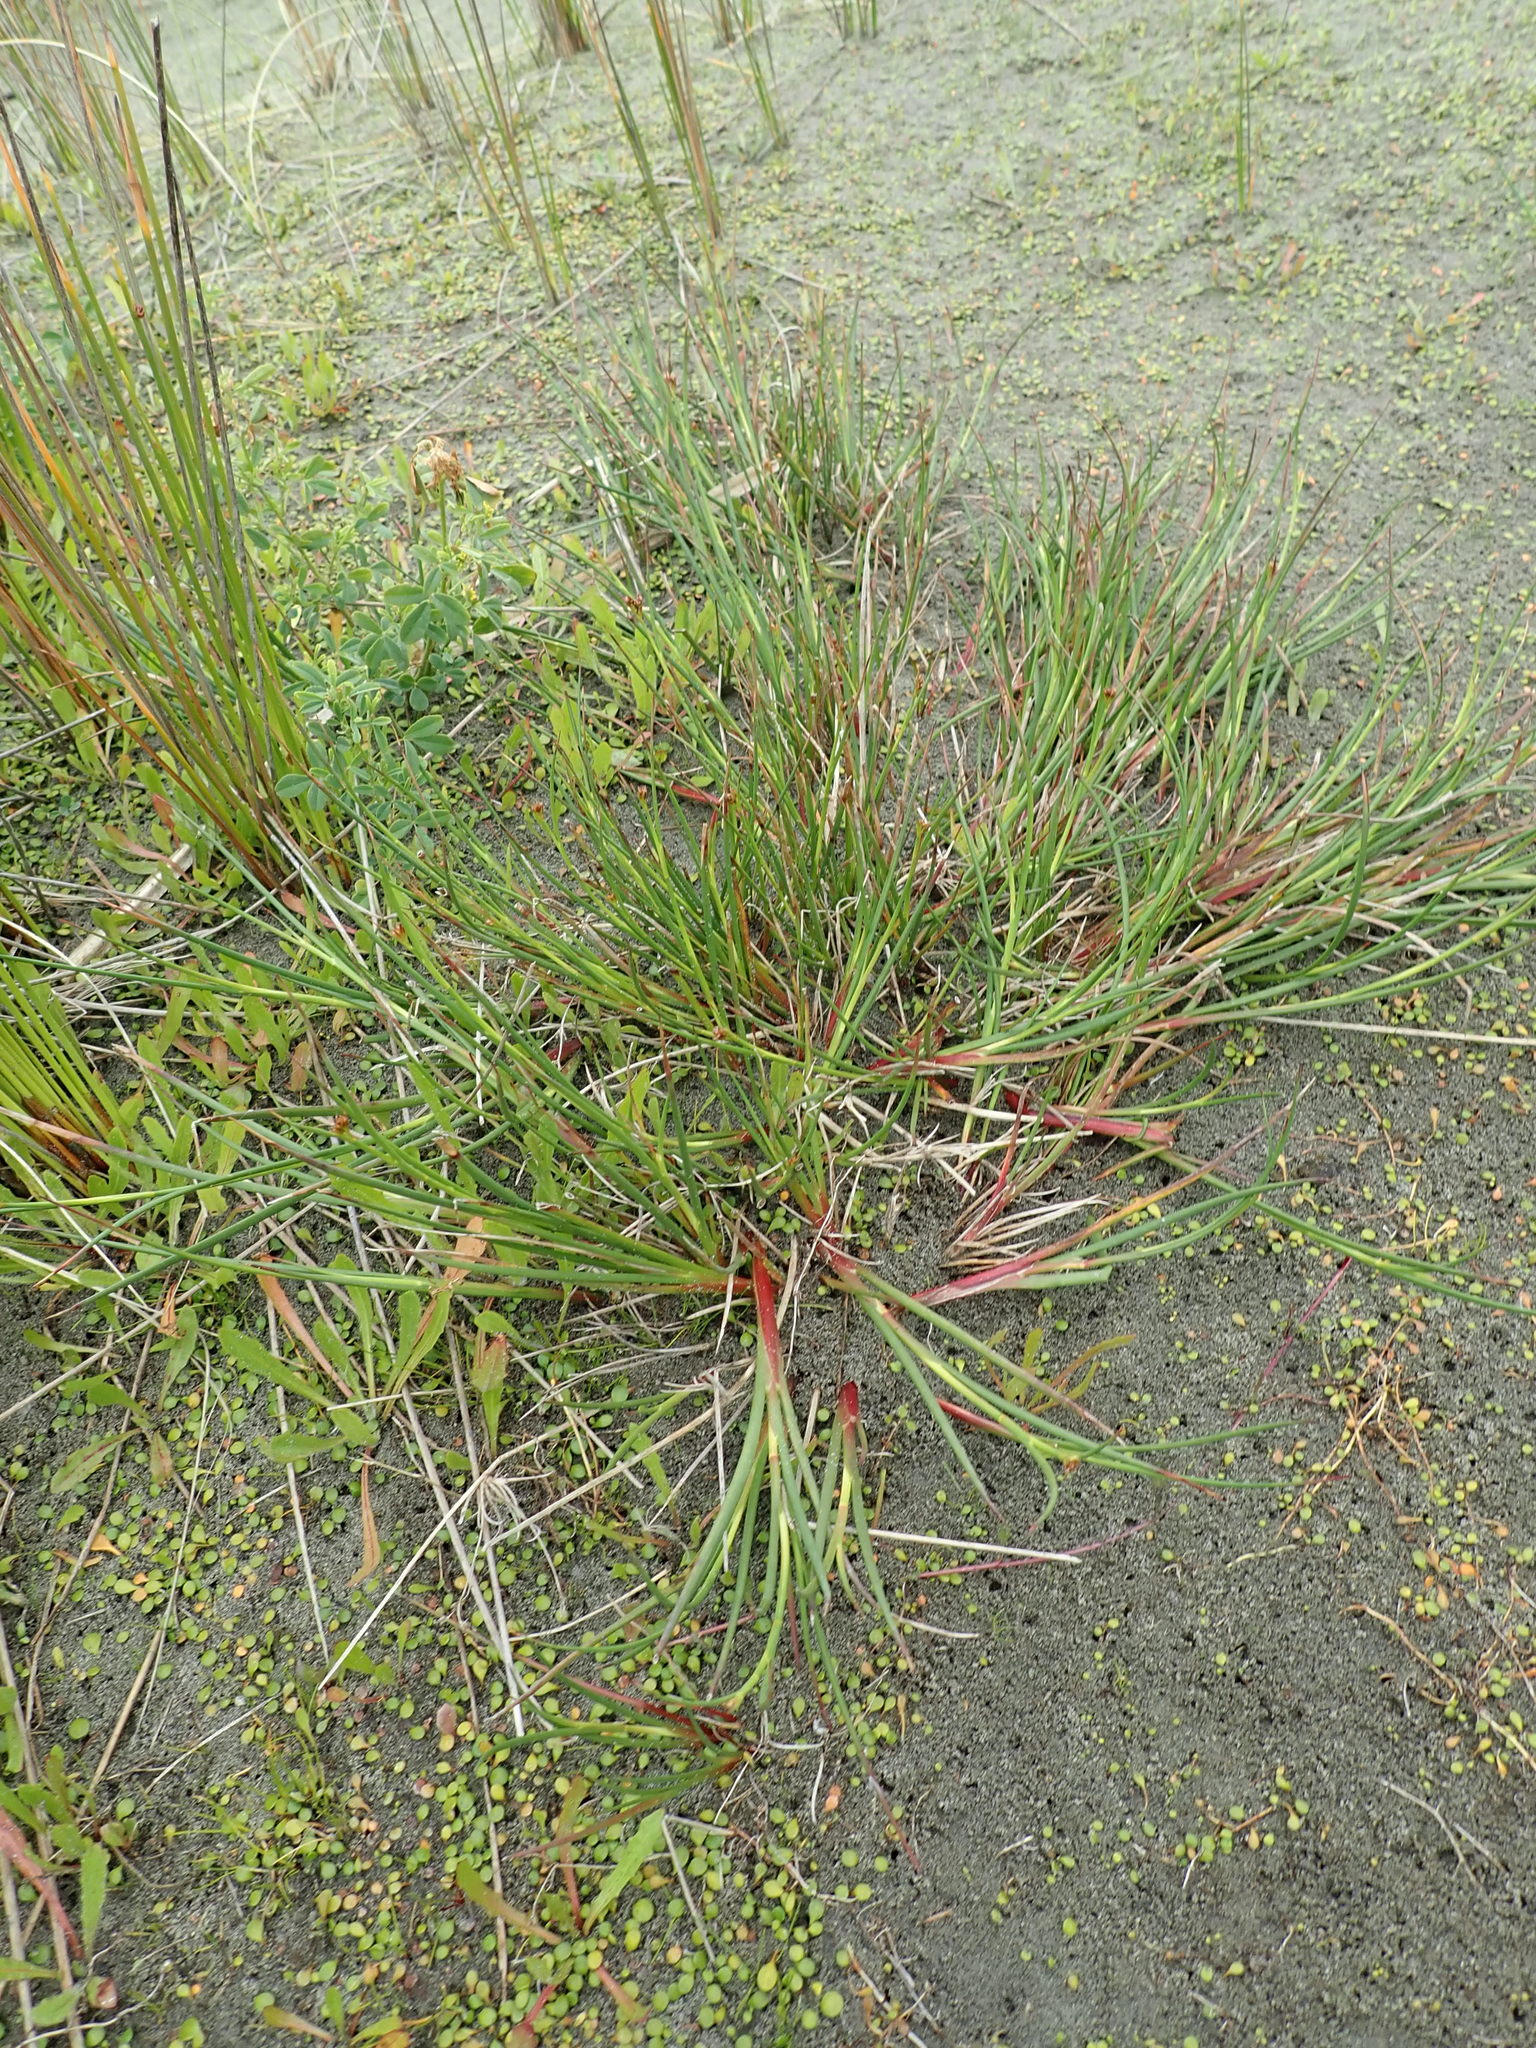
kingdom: Plantae
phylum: Tracheophyta
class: Liliopsida
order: Poales
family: Juncaceae
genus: Juncus
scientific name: Juncus articulatus
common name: Jointed rush
